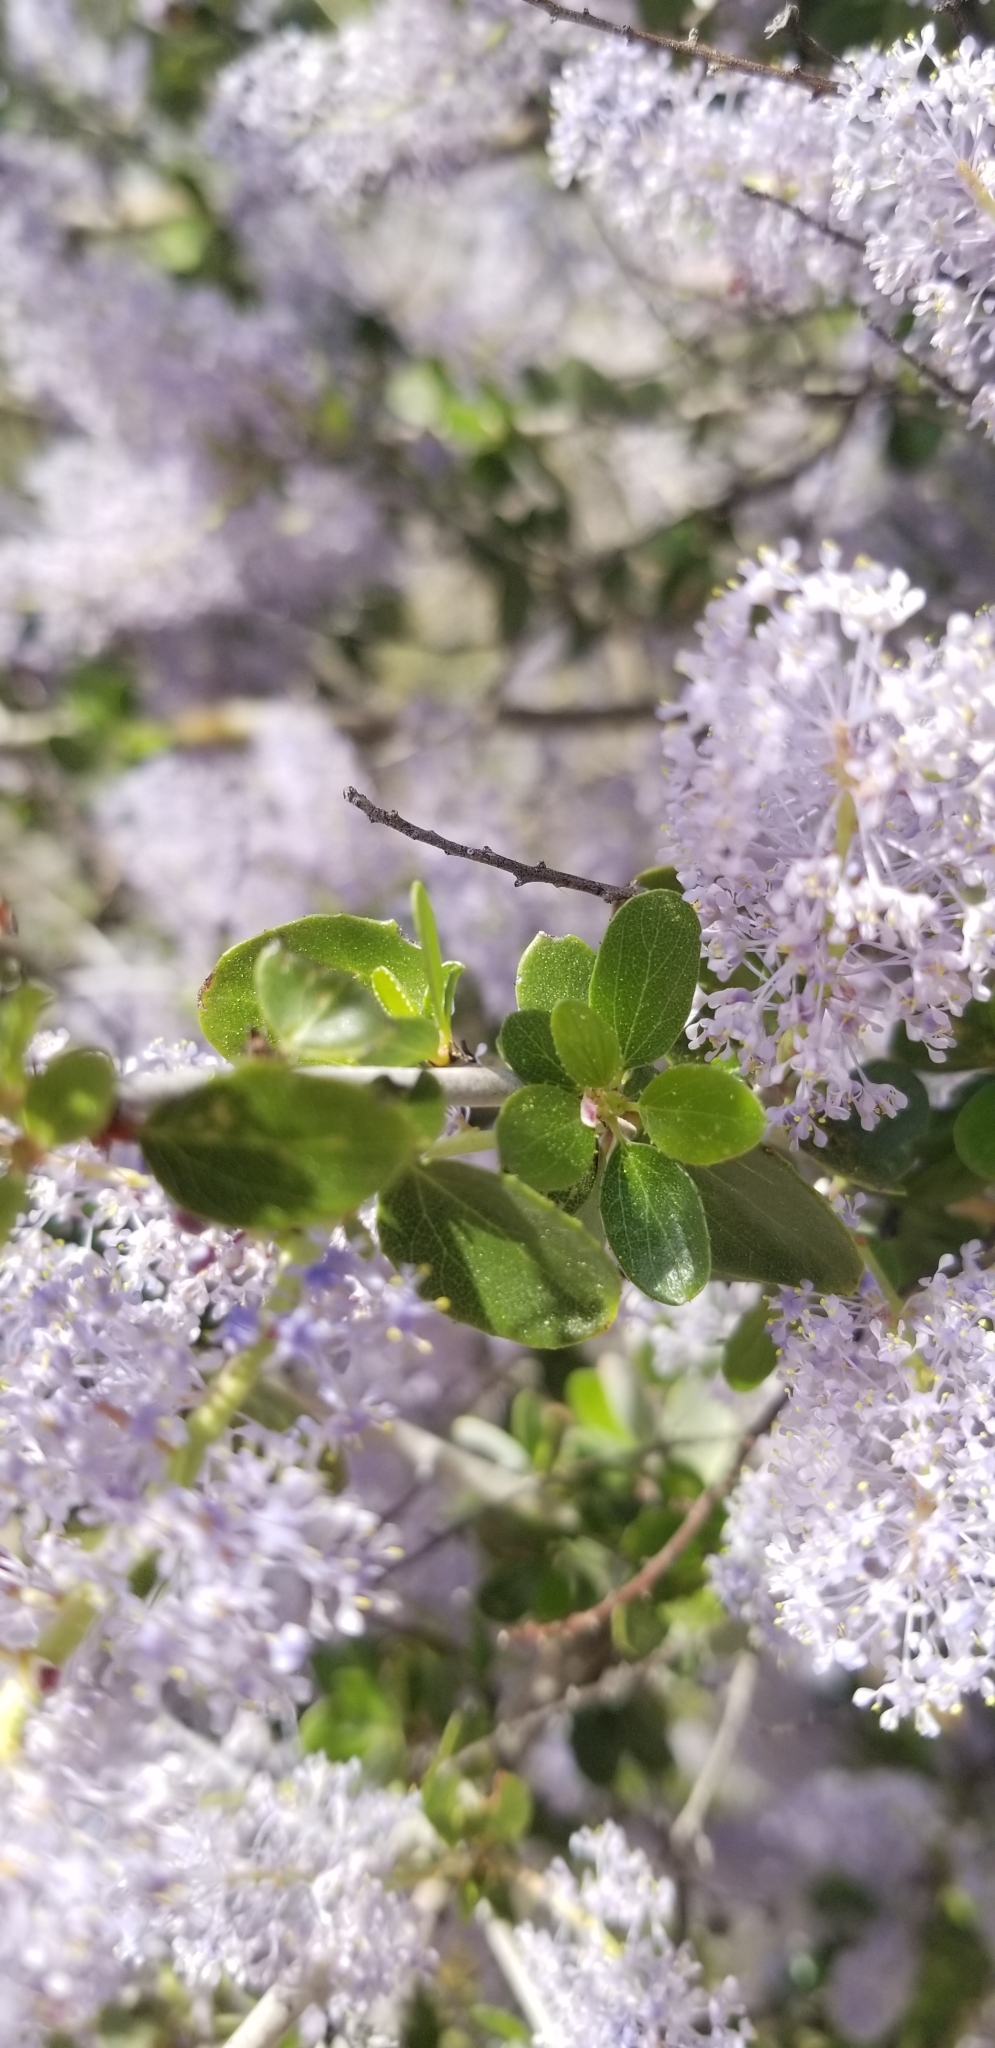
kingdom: Plantae
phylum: Tracheophyta
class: Magnoliopsida
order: Rosales
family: Rhamnaceae
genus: Ceanothus
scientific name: Ceanothus leucodermis
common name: Chaparral whitethorn
